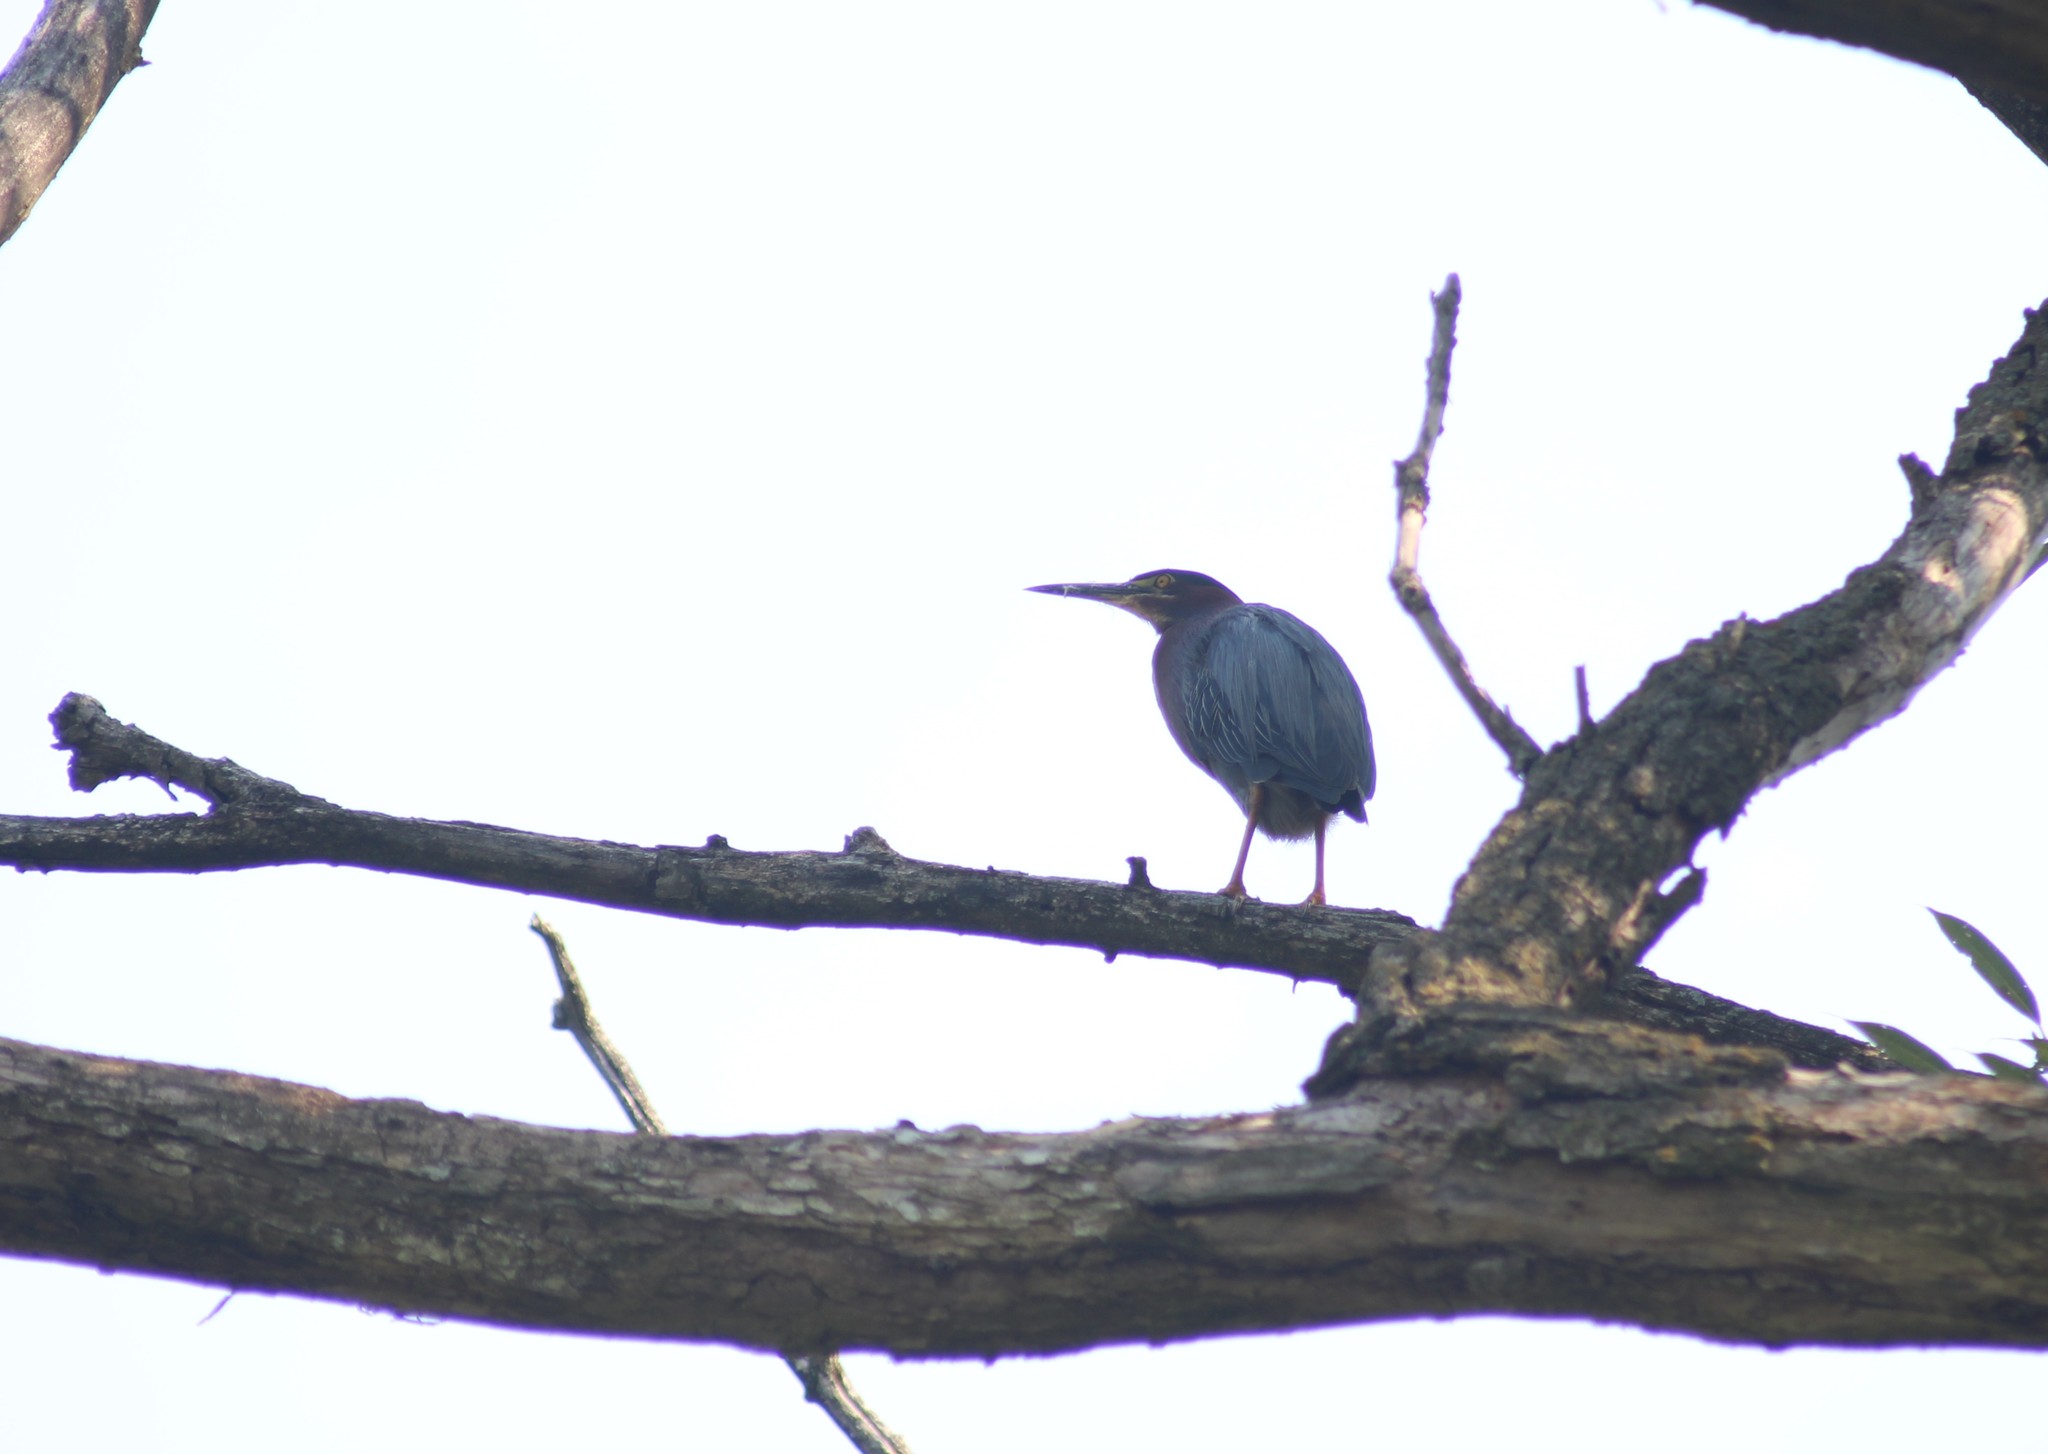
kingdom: Animalia
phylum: Chordata
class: Aves
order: Pelecaniformes
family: Ardeidae
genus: Butorides
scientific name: Butorides virescens
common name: Green heron
